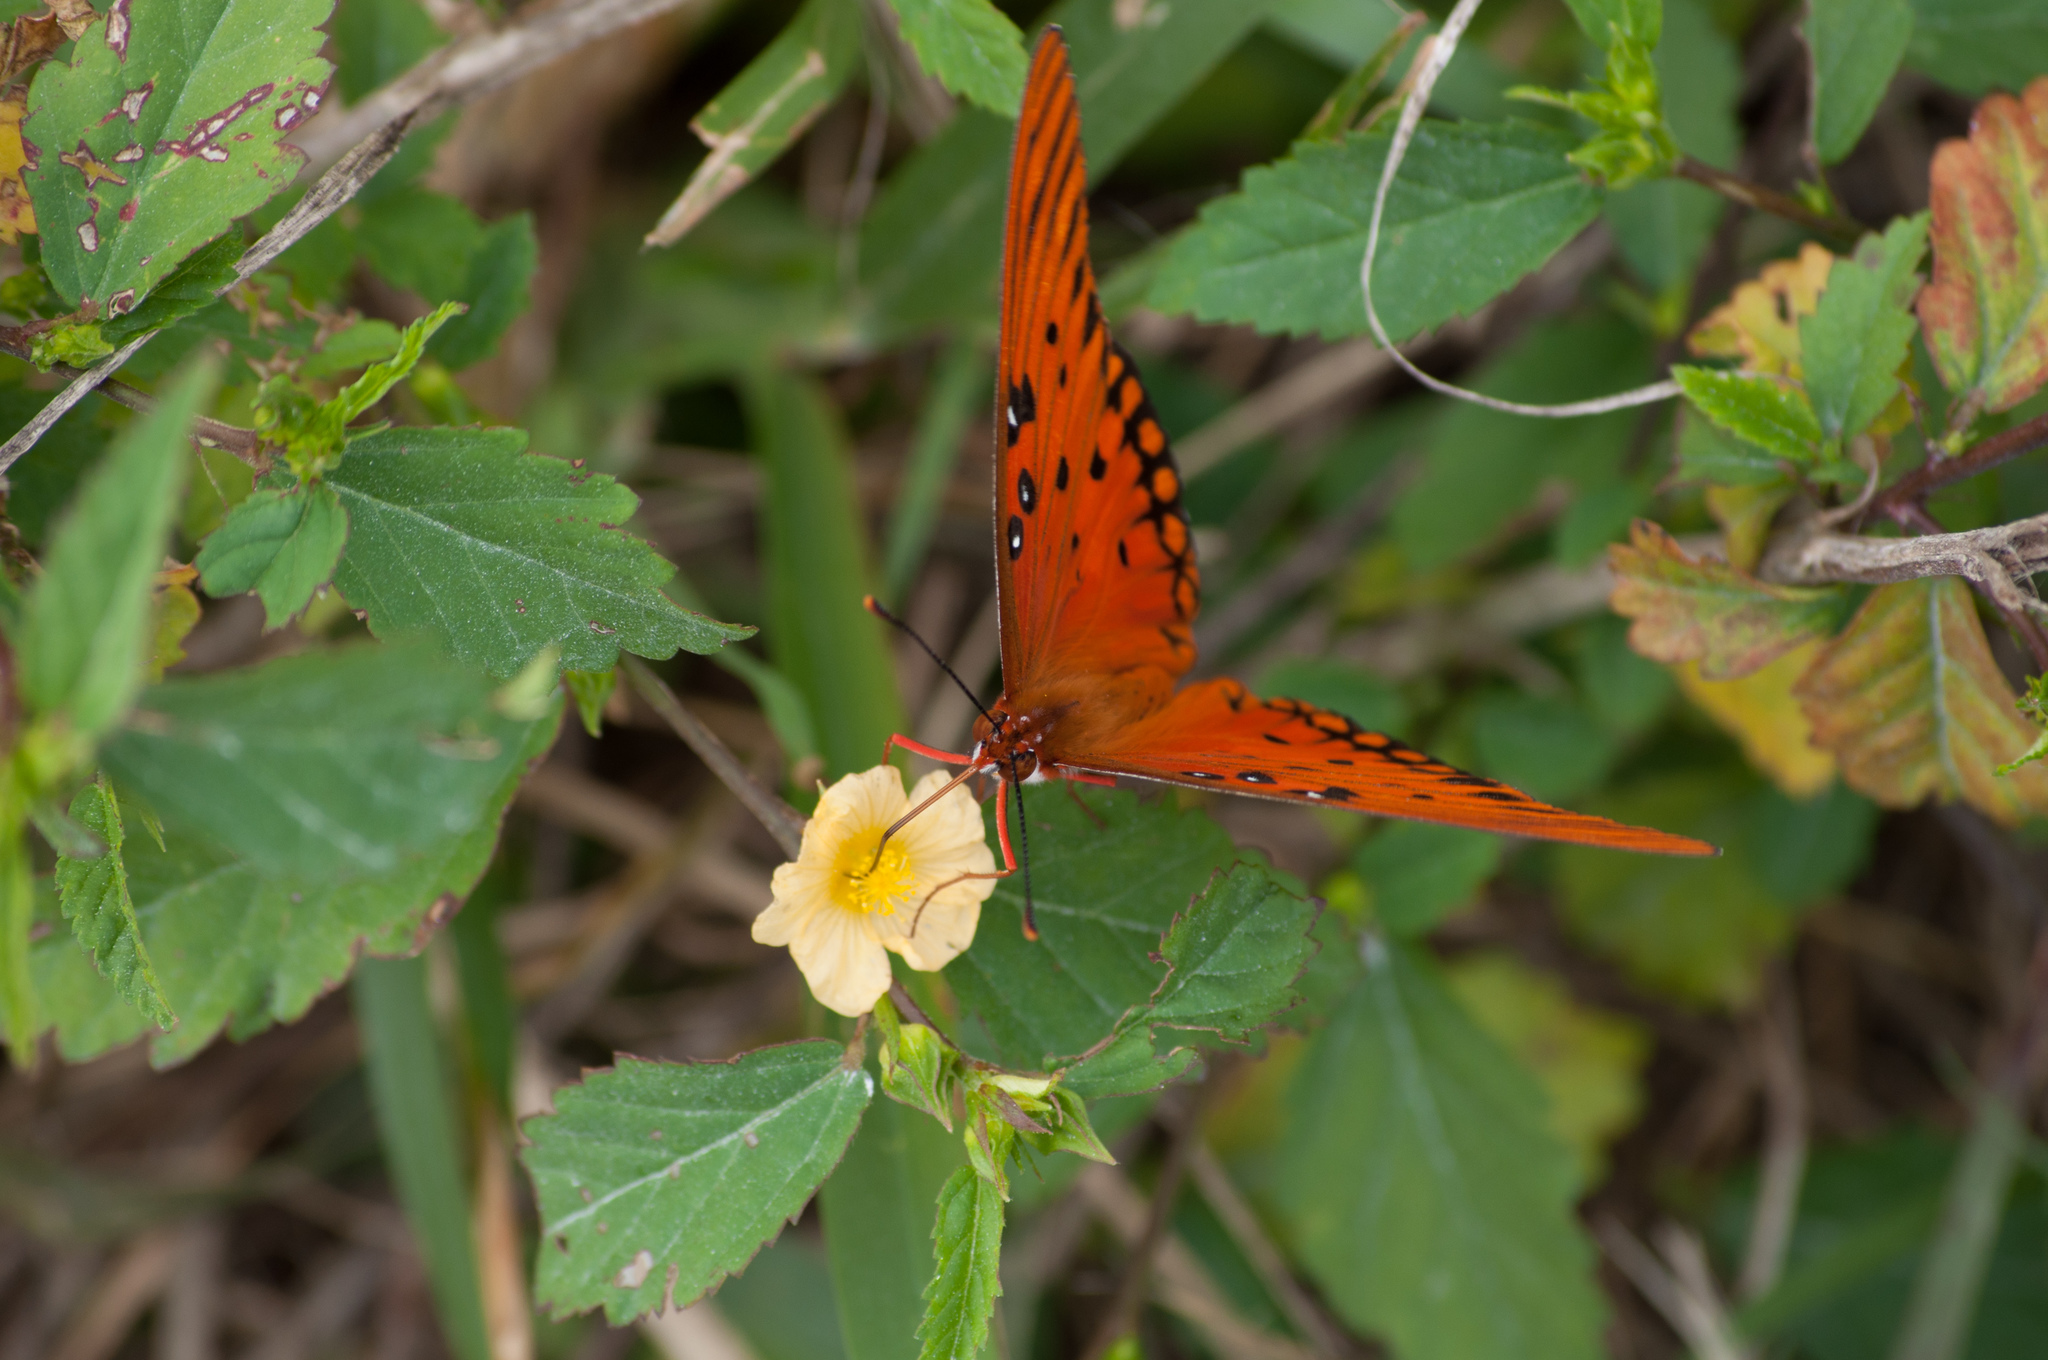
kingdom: Animalia
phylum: Arthropoda
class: Insecta
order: Lepidoptera
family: Nymphalidae
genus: Dione
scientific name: Dione vanillae
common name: Gulf fritillary
